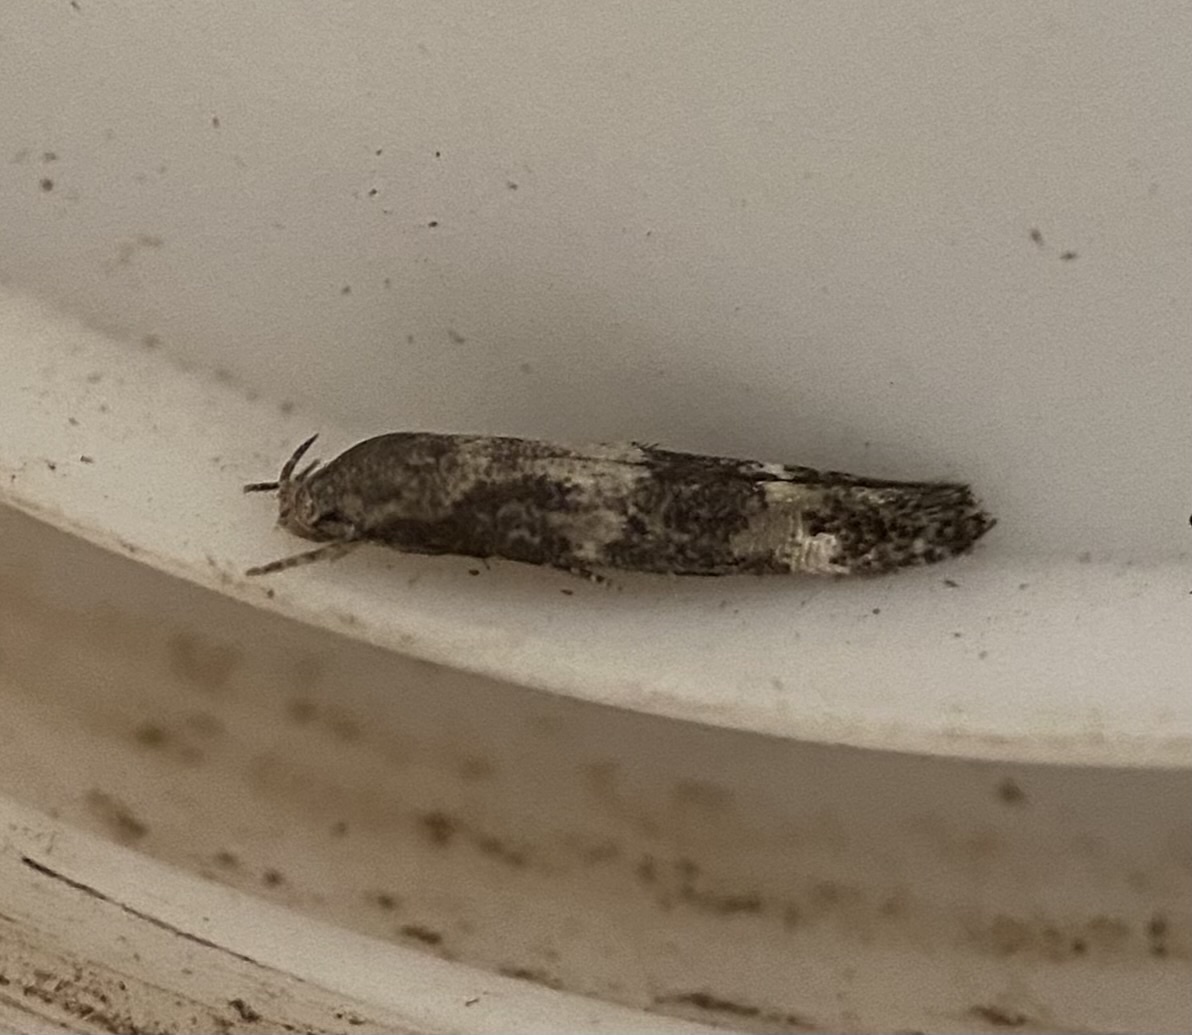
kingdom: Animalia
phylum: Arthropoda
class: Insecta
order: Lepidoptera
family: Momphidae
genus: Mompha
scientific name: Mompha subbistrigella
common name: Garden cosmet
